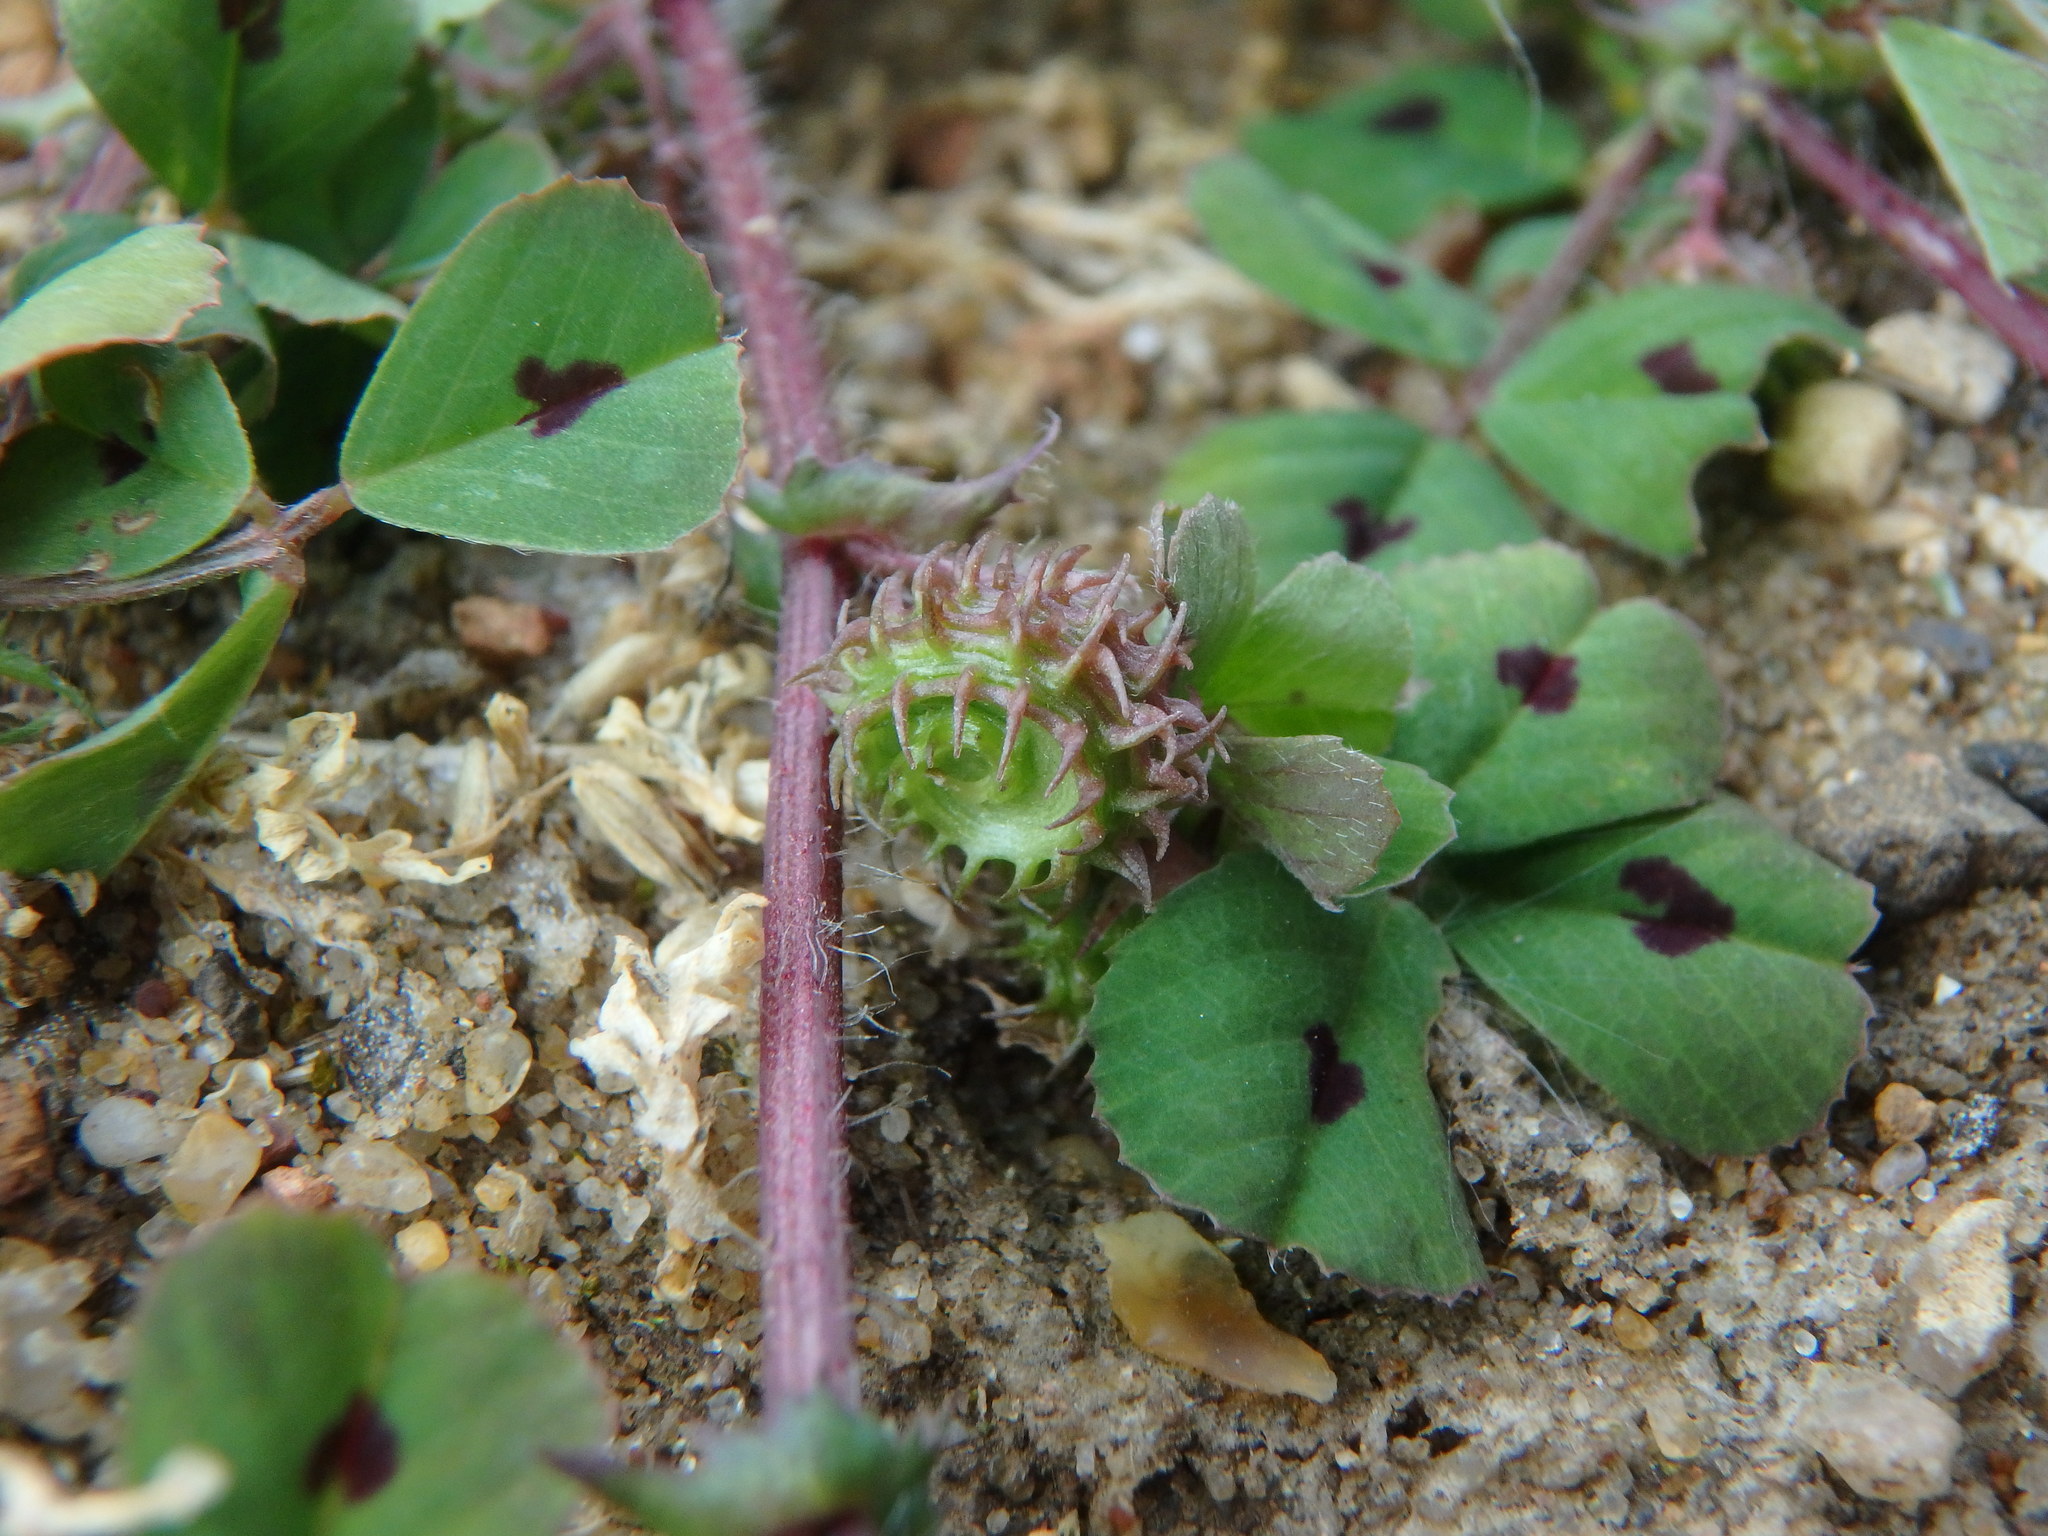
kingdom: Plantae
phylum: Tracheophyta
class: Magnoliopsida
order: Fabales
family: Fabaceae
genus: Medicago
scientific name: Medicago arabica
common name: Spotted medick
